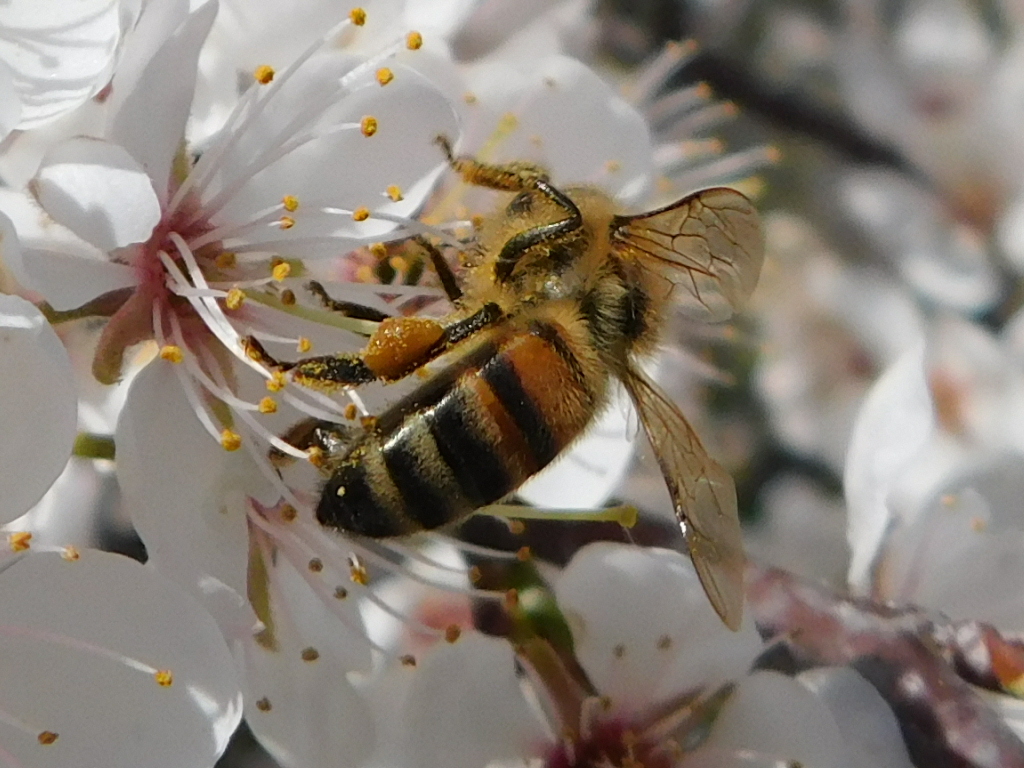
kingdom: Animalia
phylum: Arthropoda
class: Insecta
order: Hymenoptera
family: Apidae
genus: Apis
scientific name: Apis mellifera
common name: Honey bee
